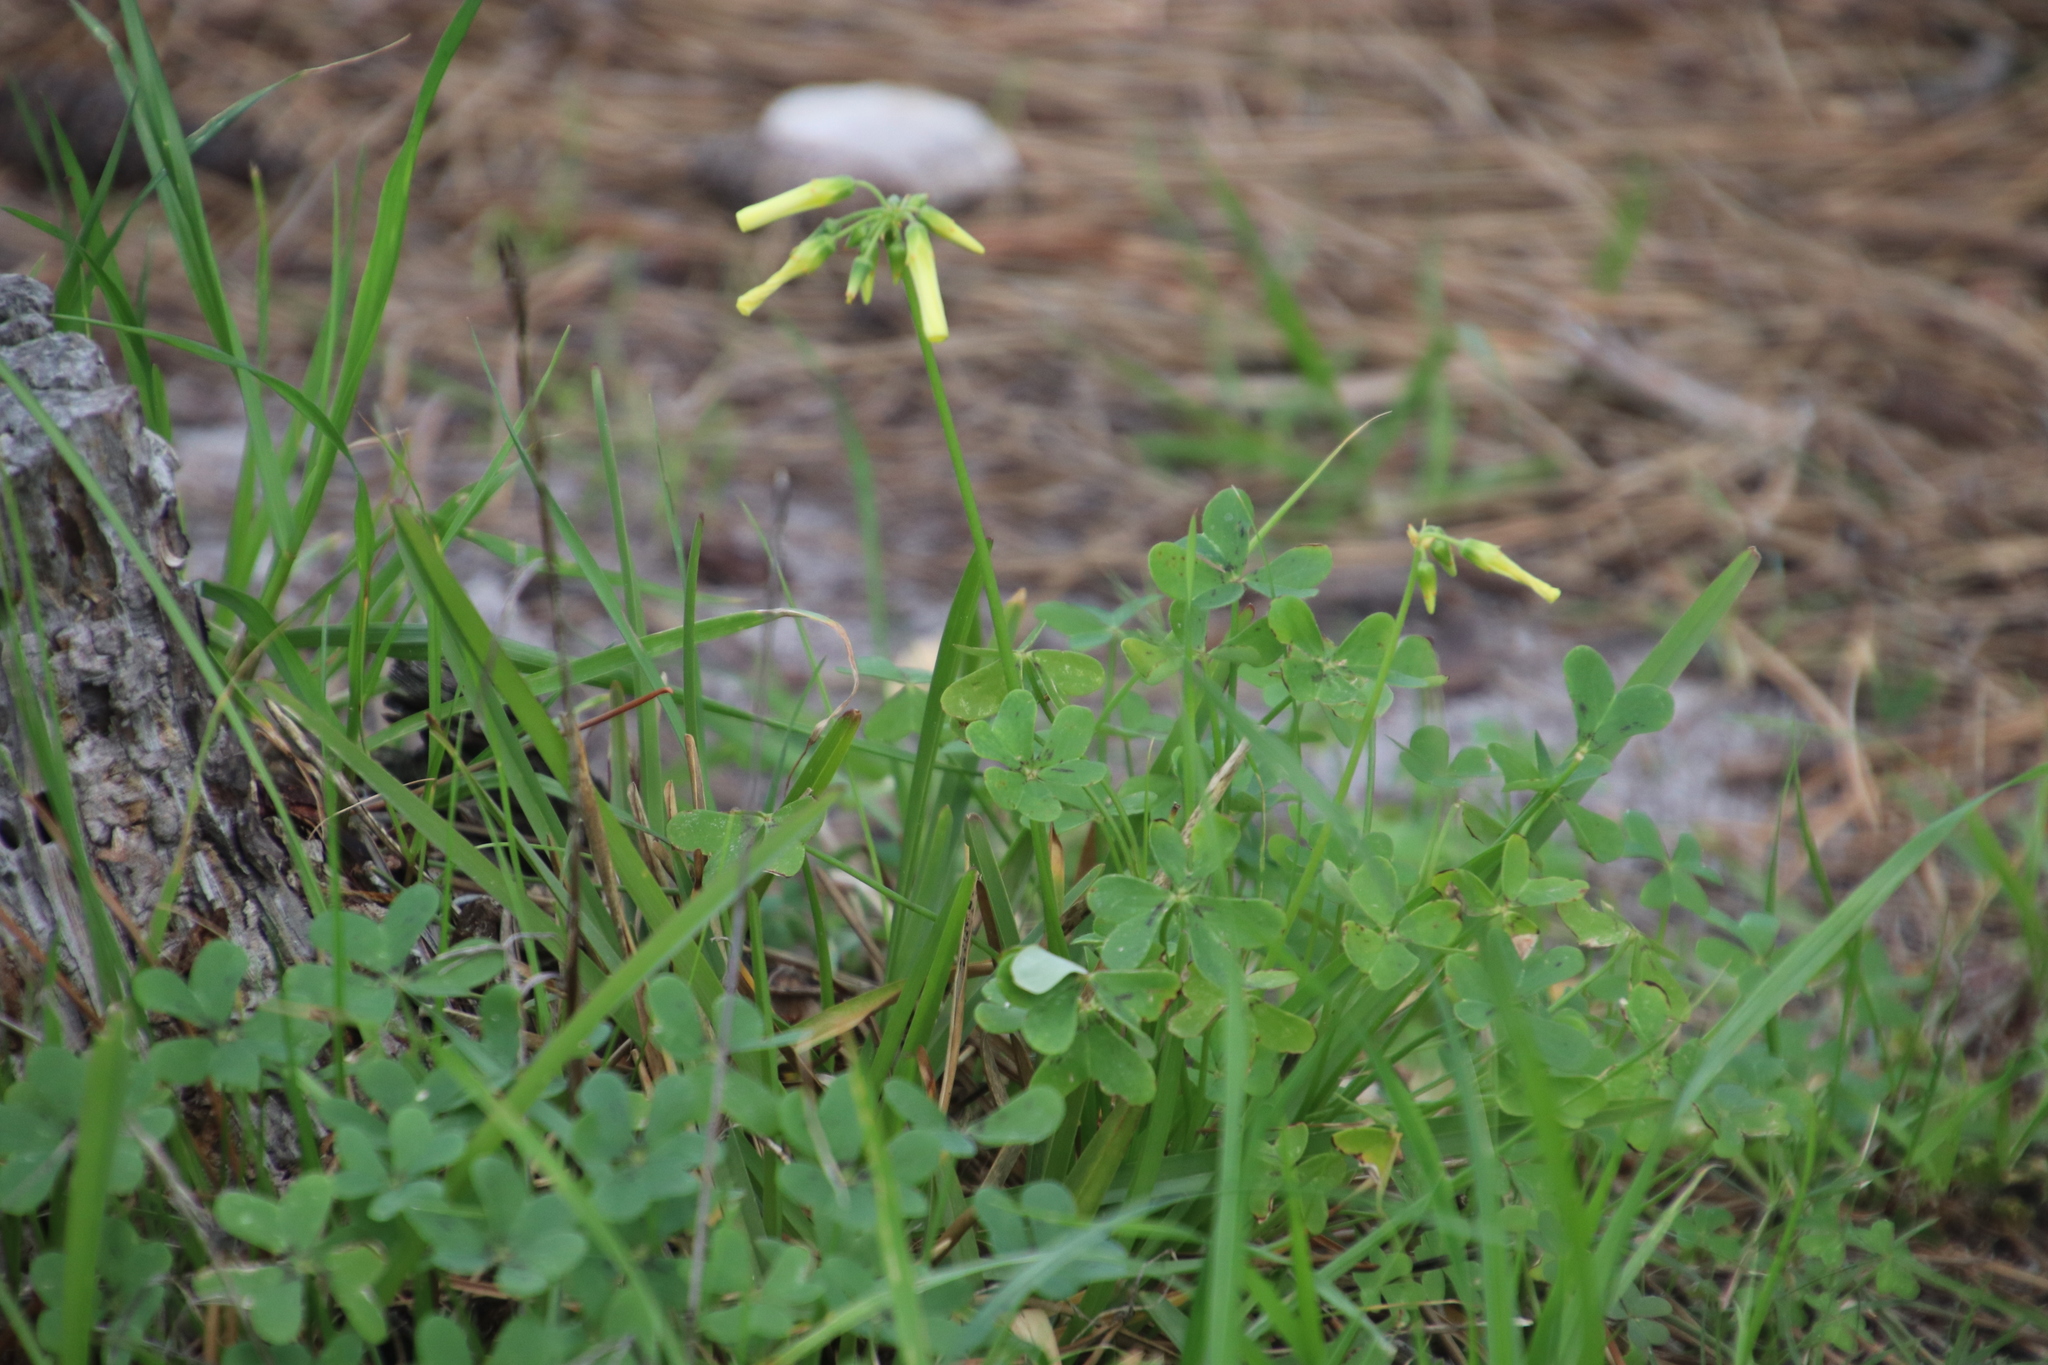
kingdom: Plantae
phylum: Tracheophyta
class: Magnoliopsida
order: Oxalidales
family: Oxalidaceae
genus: Oxalis
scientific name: Oxalis pes-caprae
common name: Bermuda-buttercup
